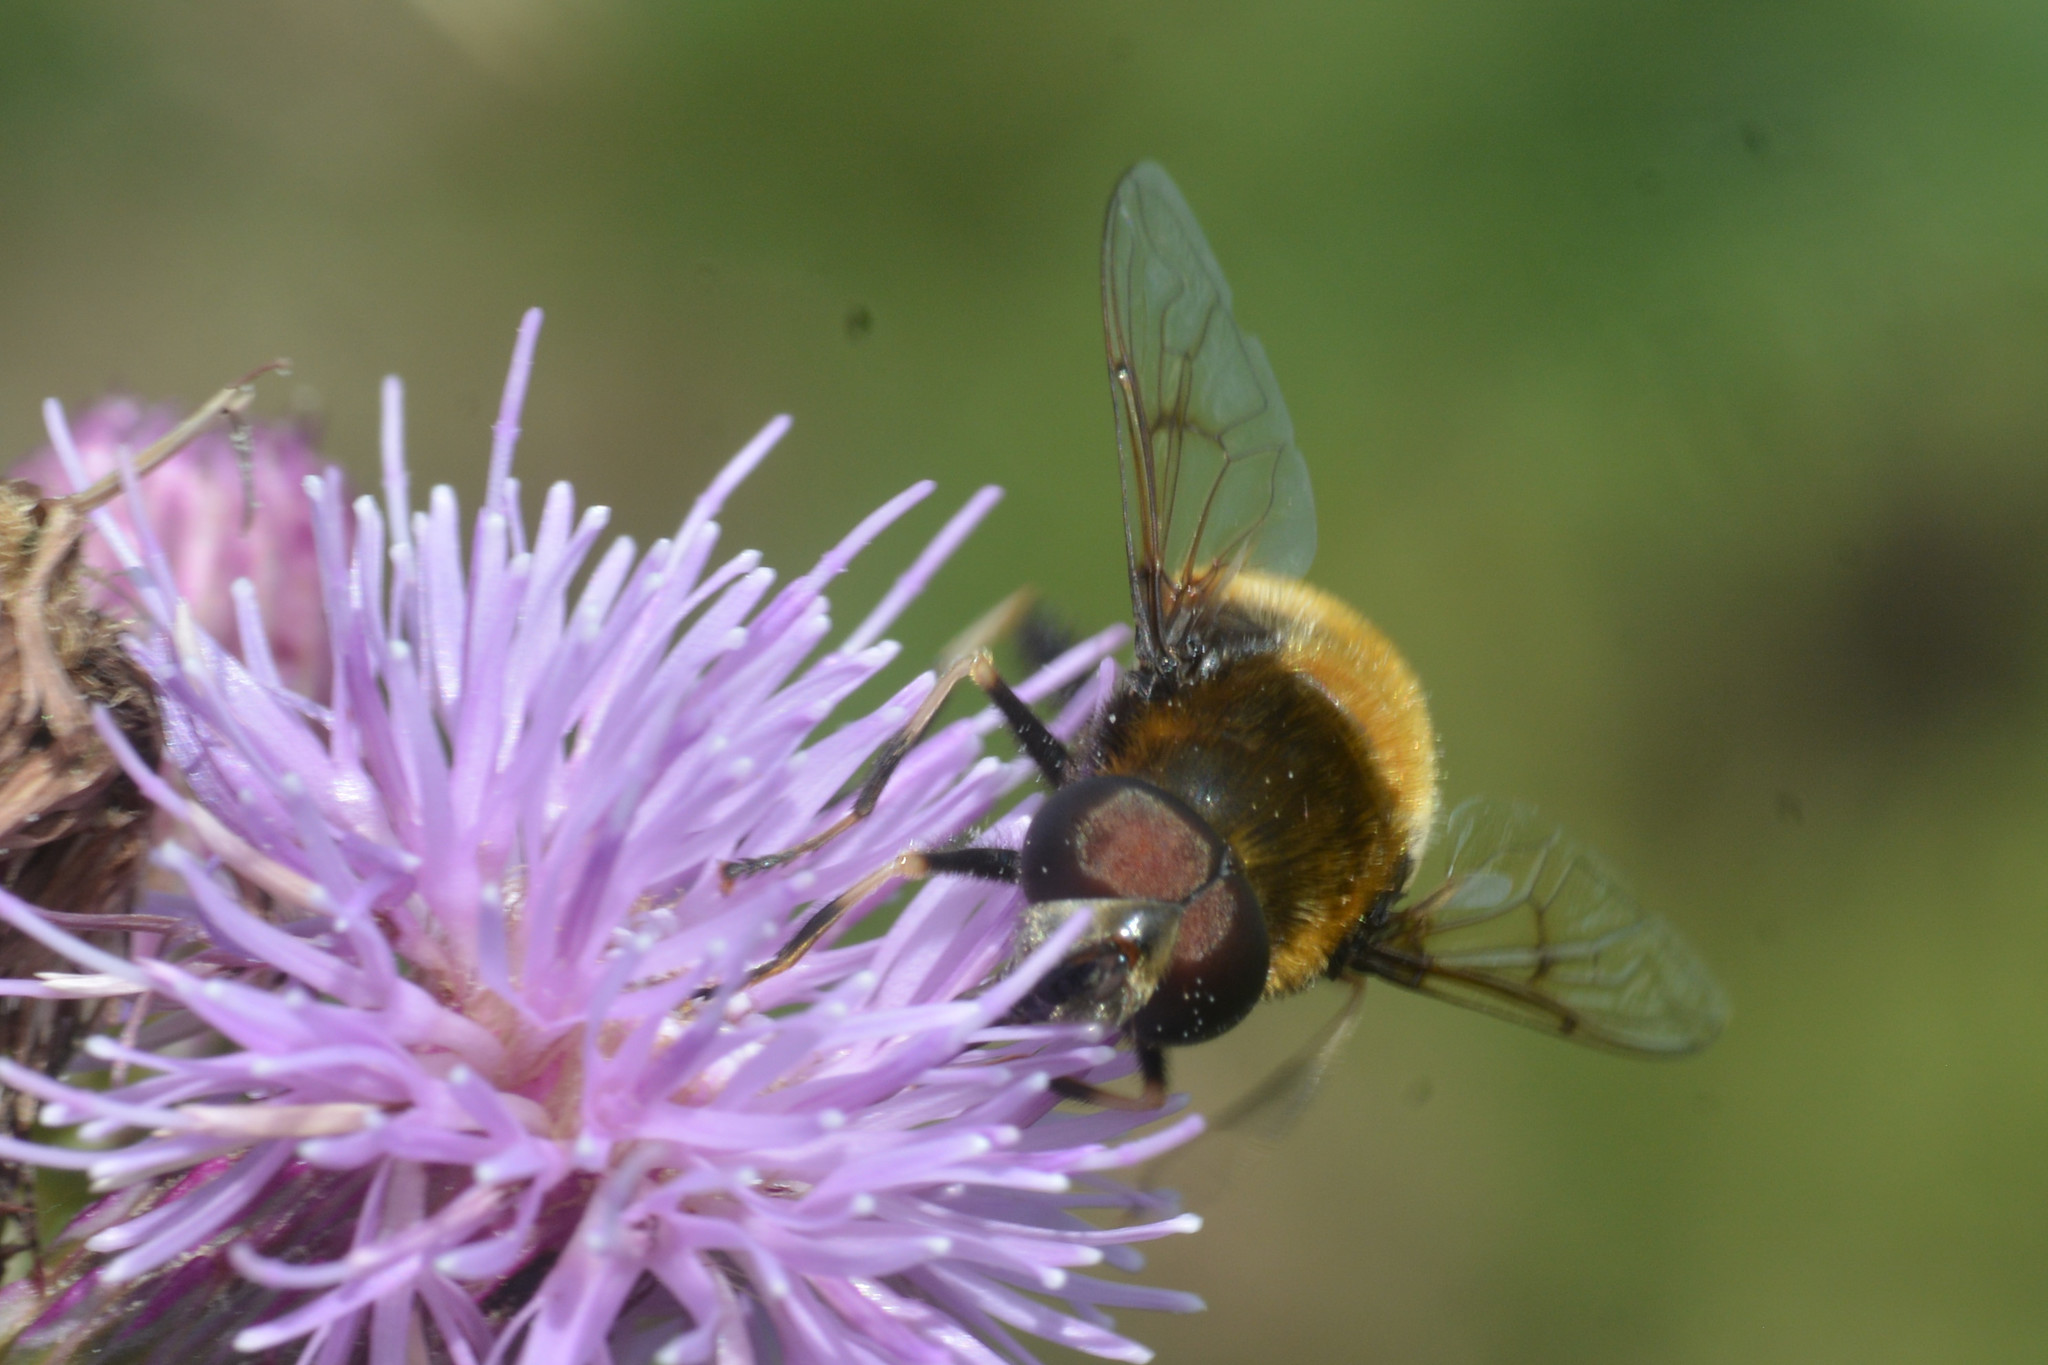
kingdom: Animalia
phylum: Arthropoda
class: Insecta
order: Diptera
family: Syrphidae
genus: Eristalis
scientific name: Eristalis intricaria
